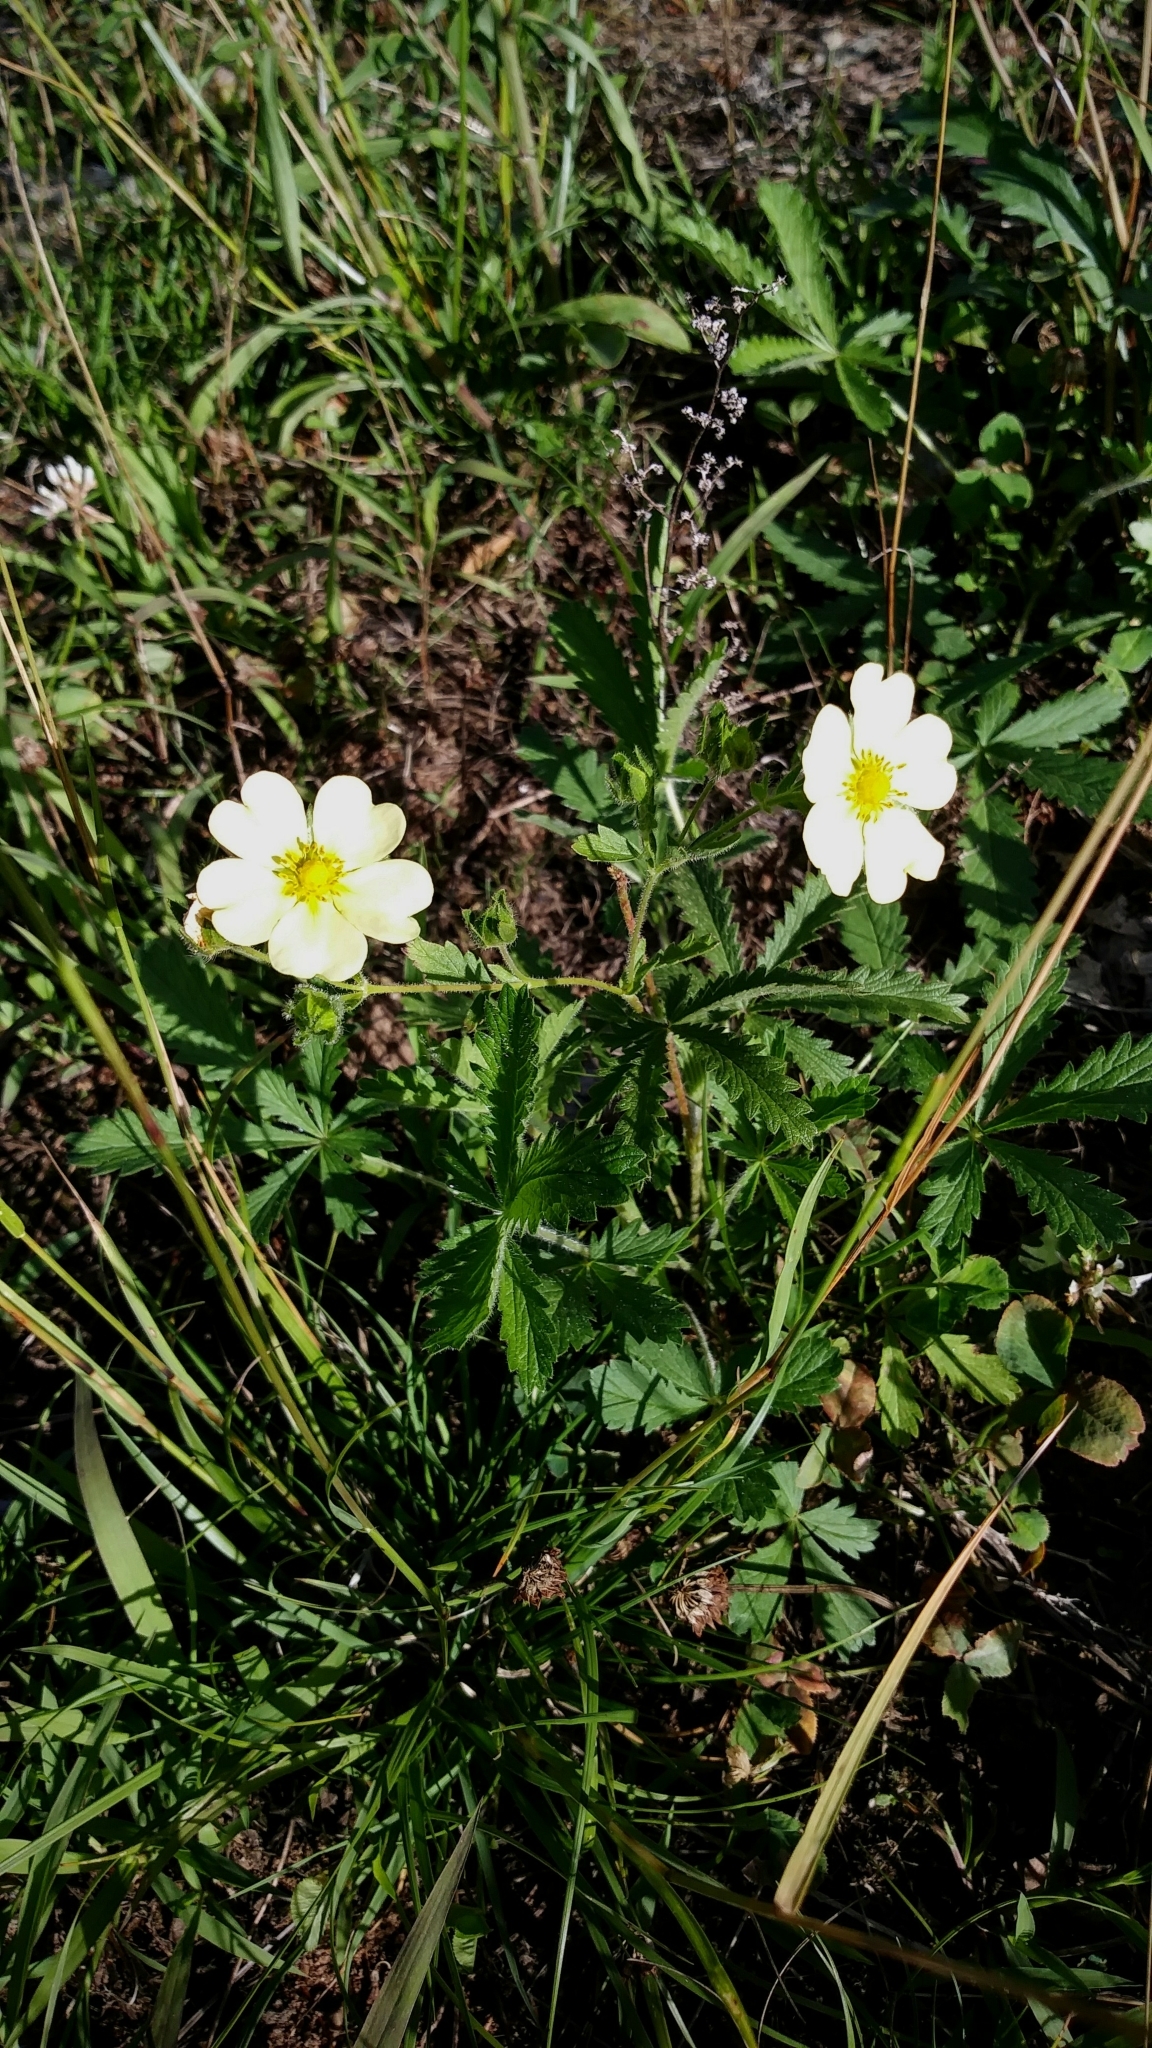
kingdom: Plantae
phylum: Tracheophyta
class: Magnoliopsida
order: Rosales
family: Rosaceae
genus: Potentilla
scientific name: Potentilla recta
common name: Sulphur cinquefoil
